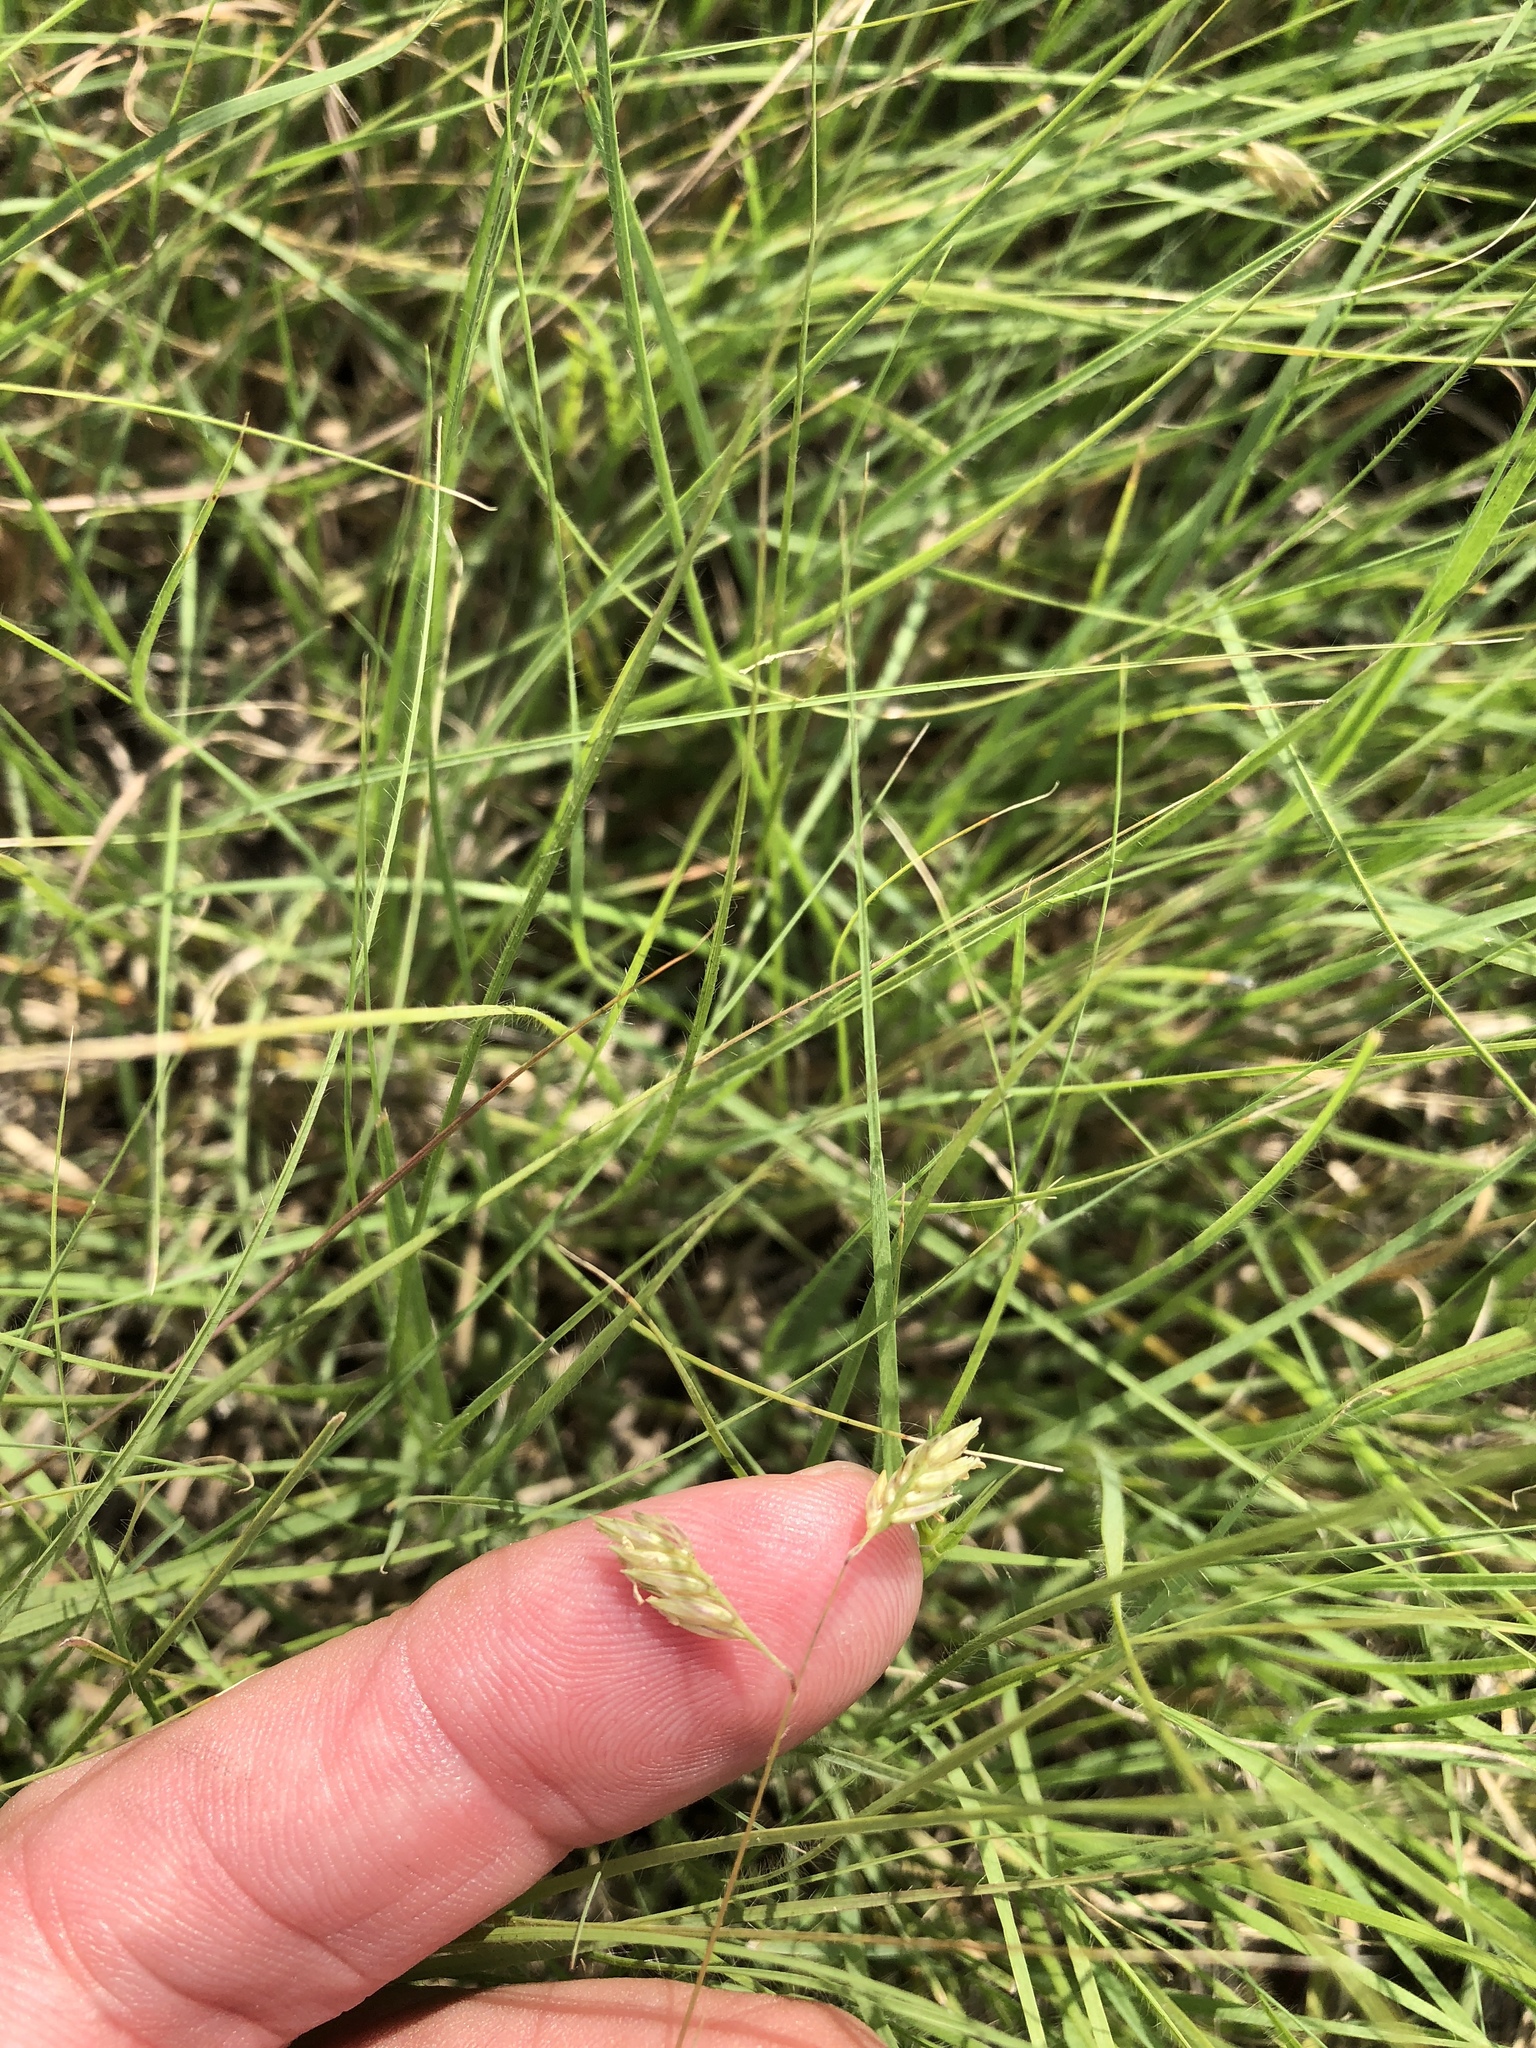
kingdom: Plantae
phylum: Tracheophyta
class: Liliopsida
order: Poales
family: Poaceae
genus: Bouteloua
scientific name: Bouteloua dactyloides
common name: Buffalo grass
